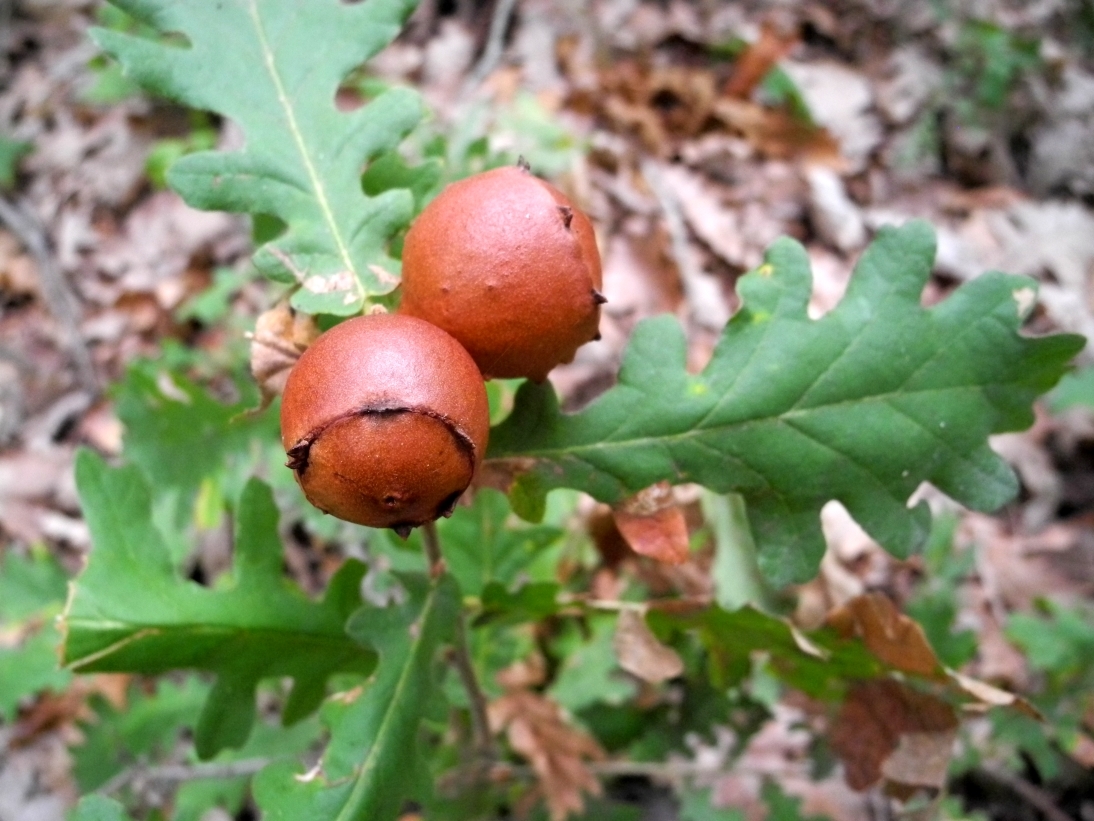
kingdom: Animalia
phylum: Arthropoda
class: Insecta
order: Hymenoptera
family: Cynipidae
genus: Andricus
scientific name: Andricus quercustozae
